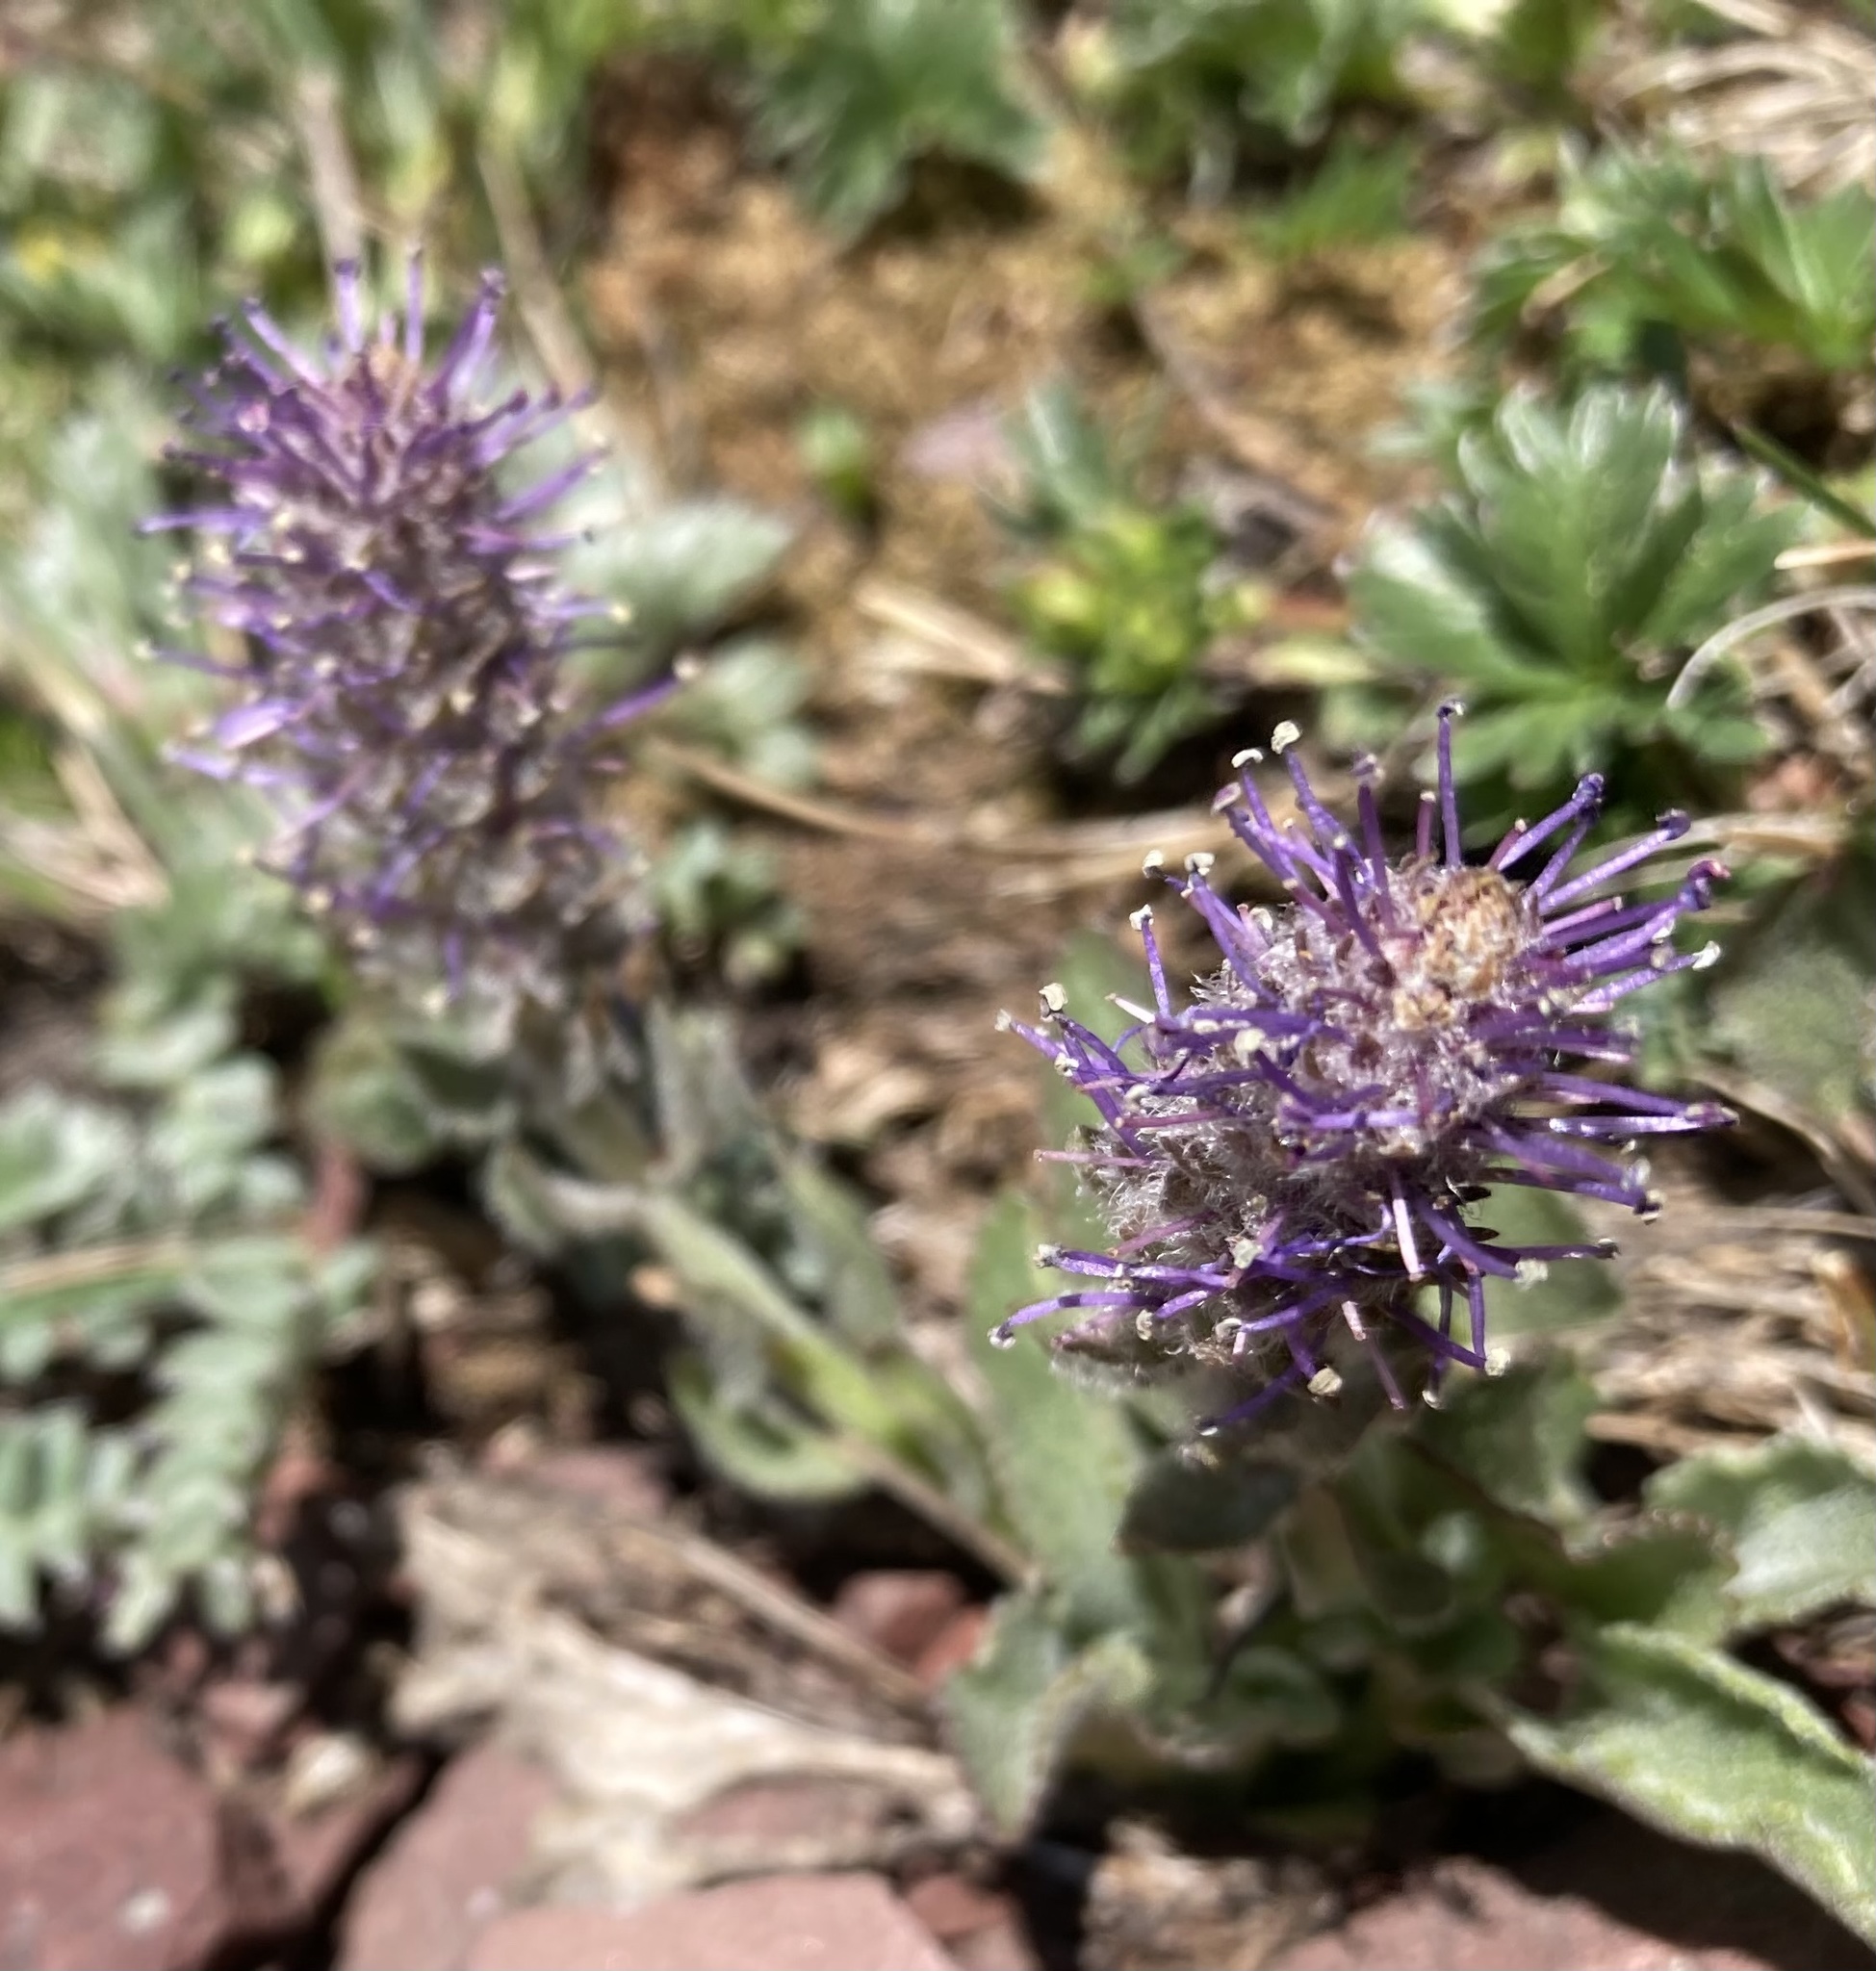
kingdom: Plantae
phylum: Tracheophyta
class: Magnoliopsida
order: Lamiales
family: Plantaginaceae
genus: Synthyris
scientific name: Synthyris wyomingensis
